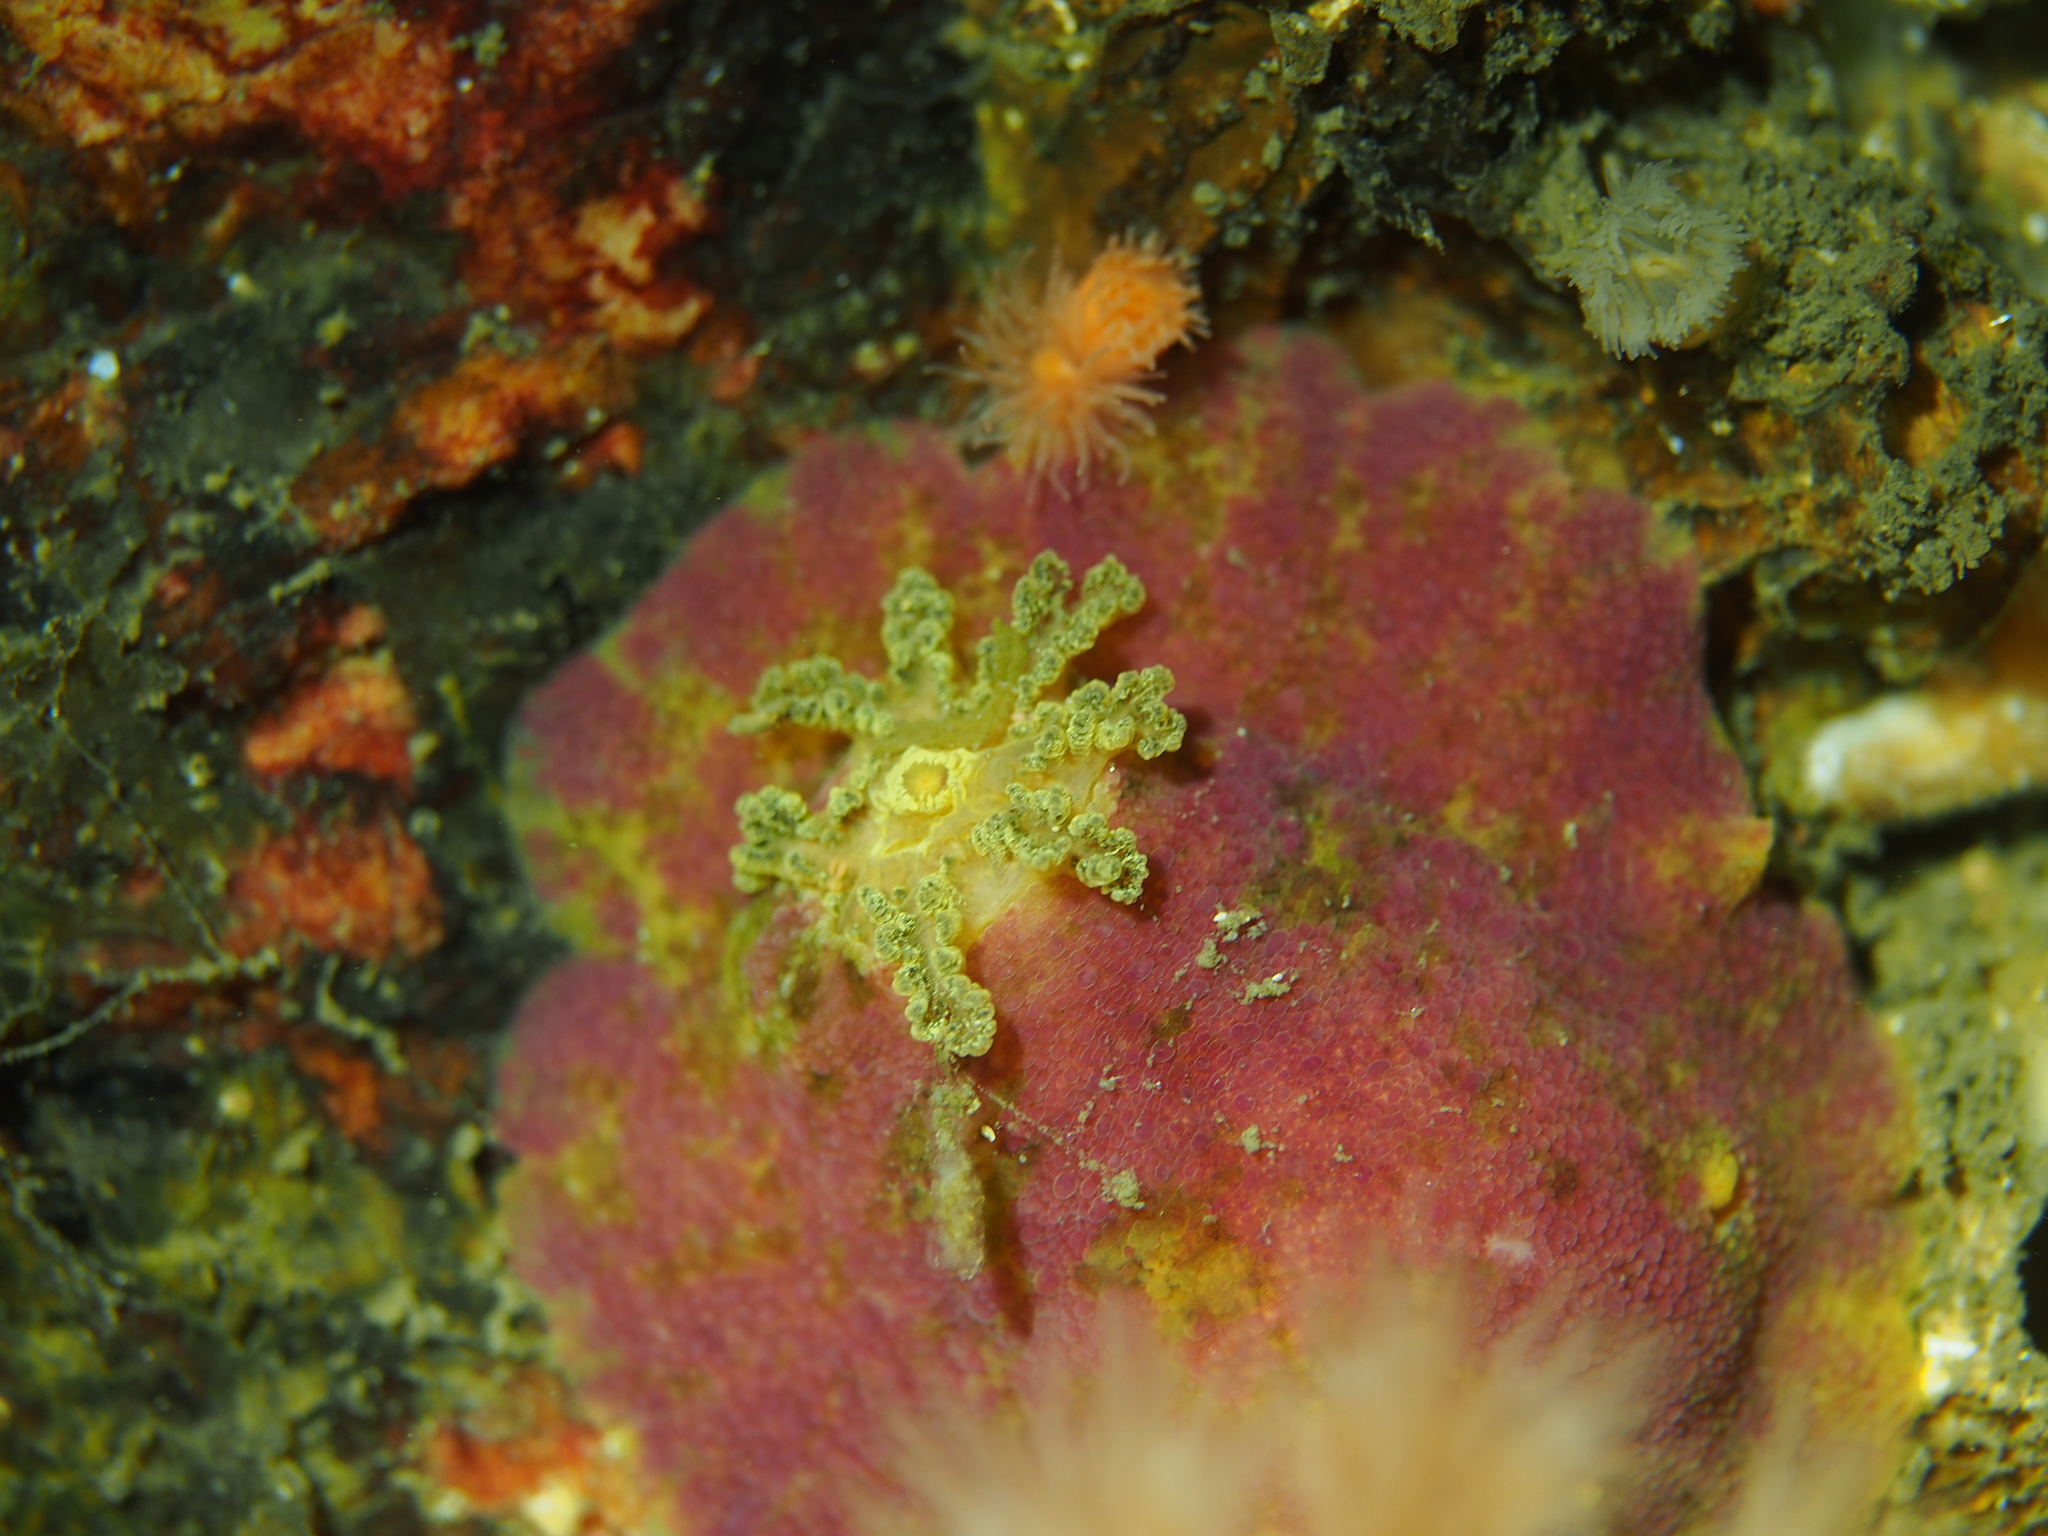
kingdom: Animalia
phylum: Mollusca
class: Gastropoda
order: Nudibranchia
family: Dorididae
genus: Doris
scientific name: Doris pseudoargus
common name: Sea lemon
